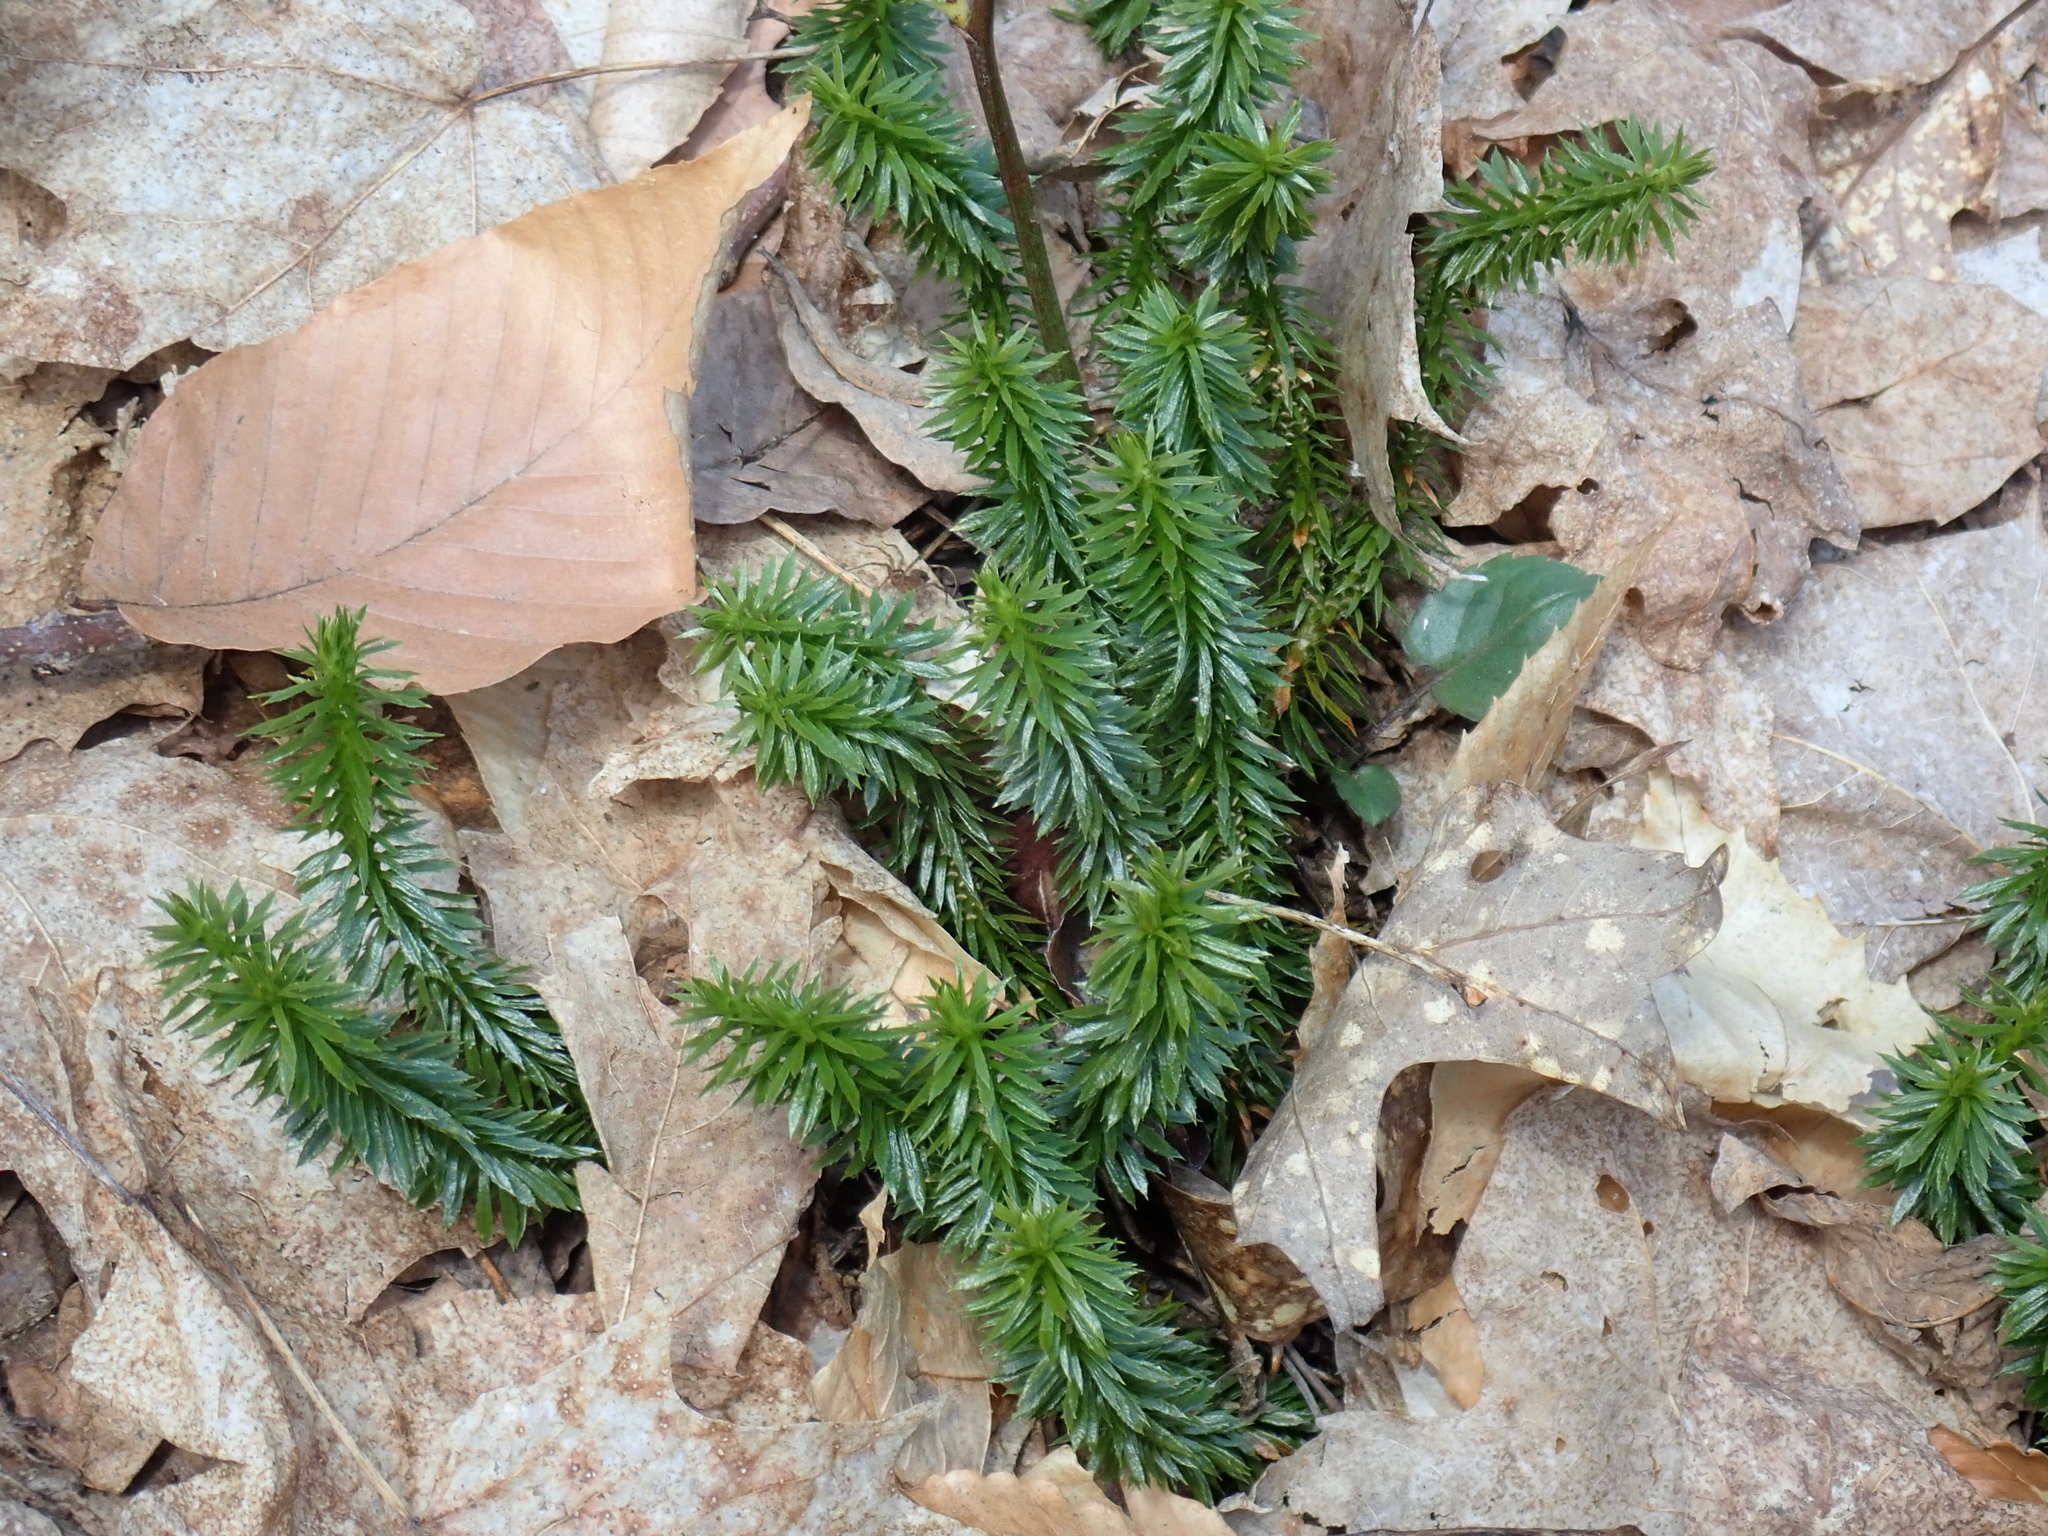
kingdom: Plantae
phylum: Tracheophyta
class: Lycopodiopsida
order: Lycopodiales
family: Lycopodiaceae
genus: Huperzia
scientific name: Huperzia lucidula
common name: Shining clubmoss
